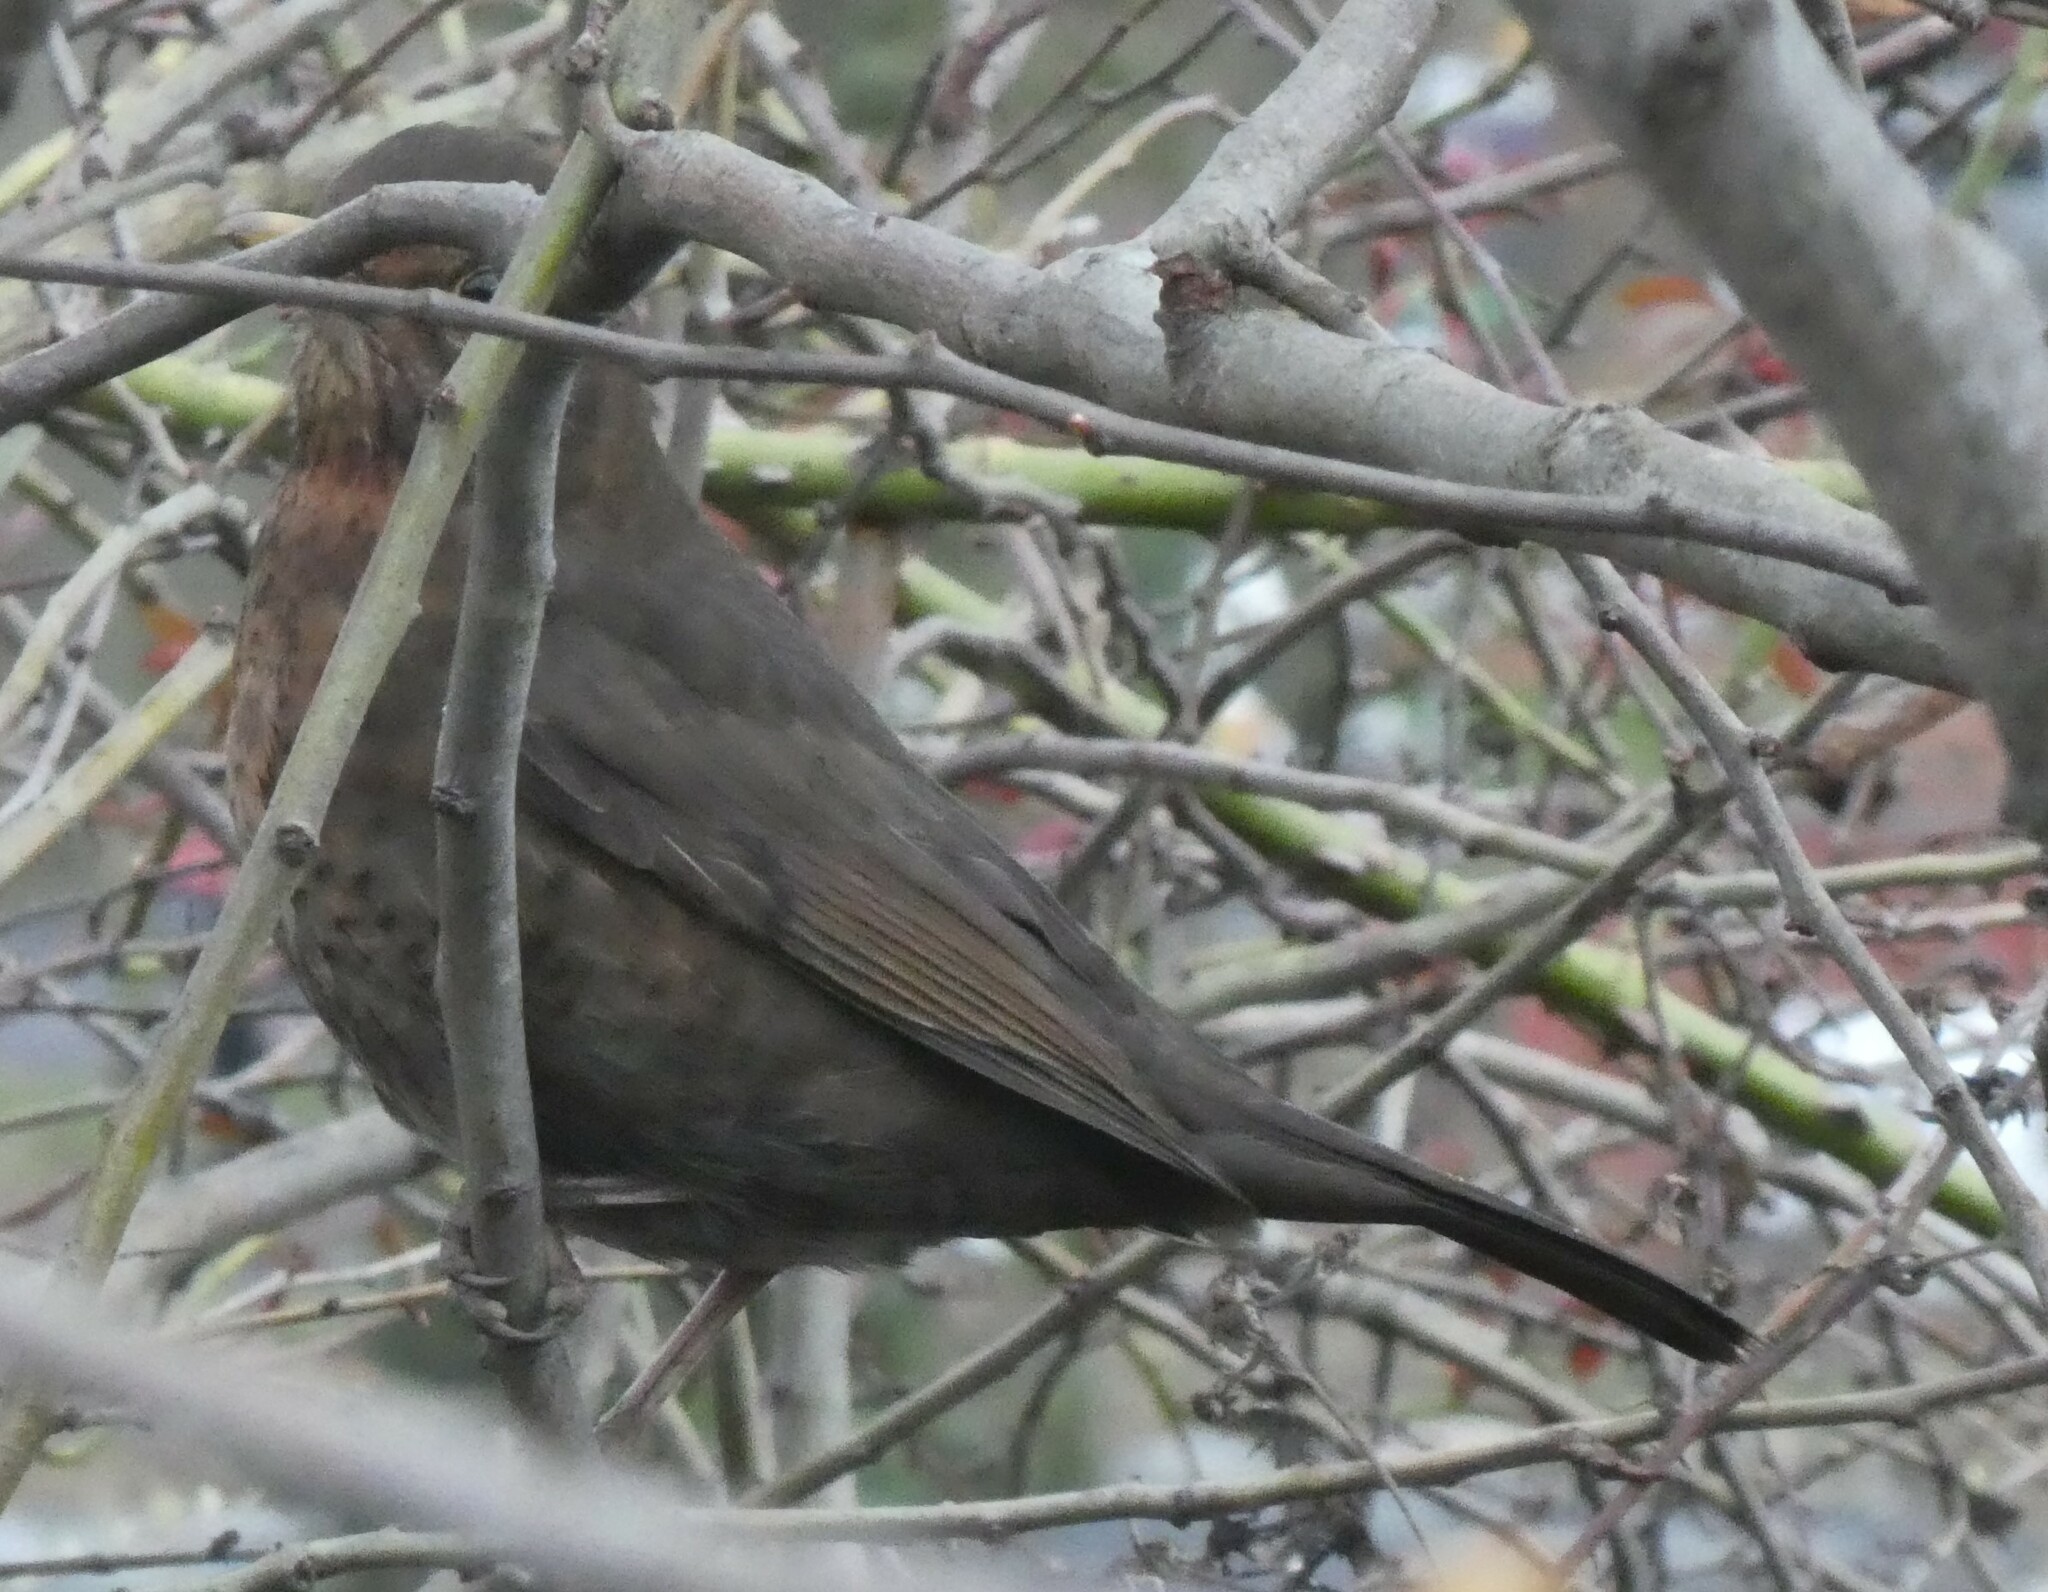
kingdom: Animalia
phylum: Chordata
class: Aves
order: Passeriformes
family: Turdidae
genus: Turdus
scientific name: Turdus merula
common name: Common blackbird
